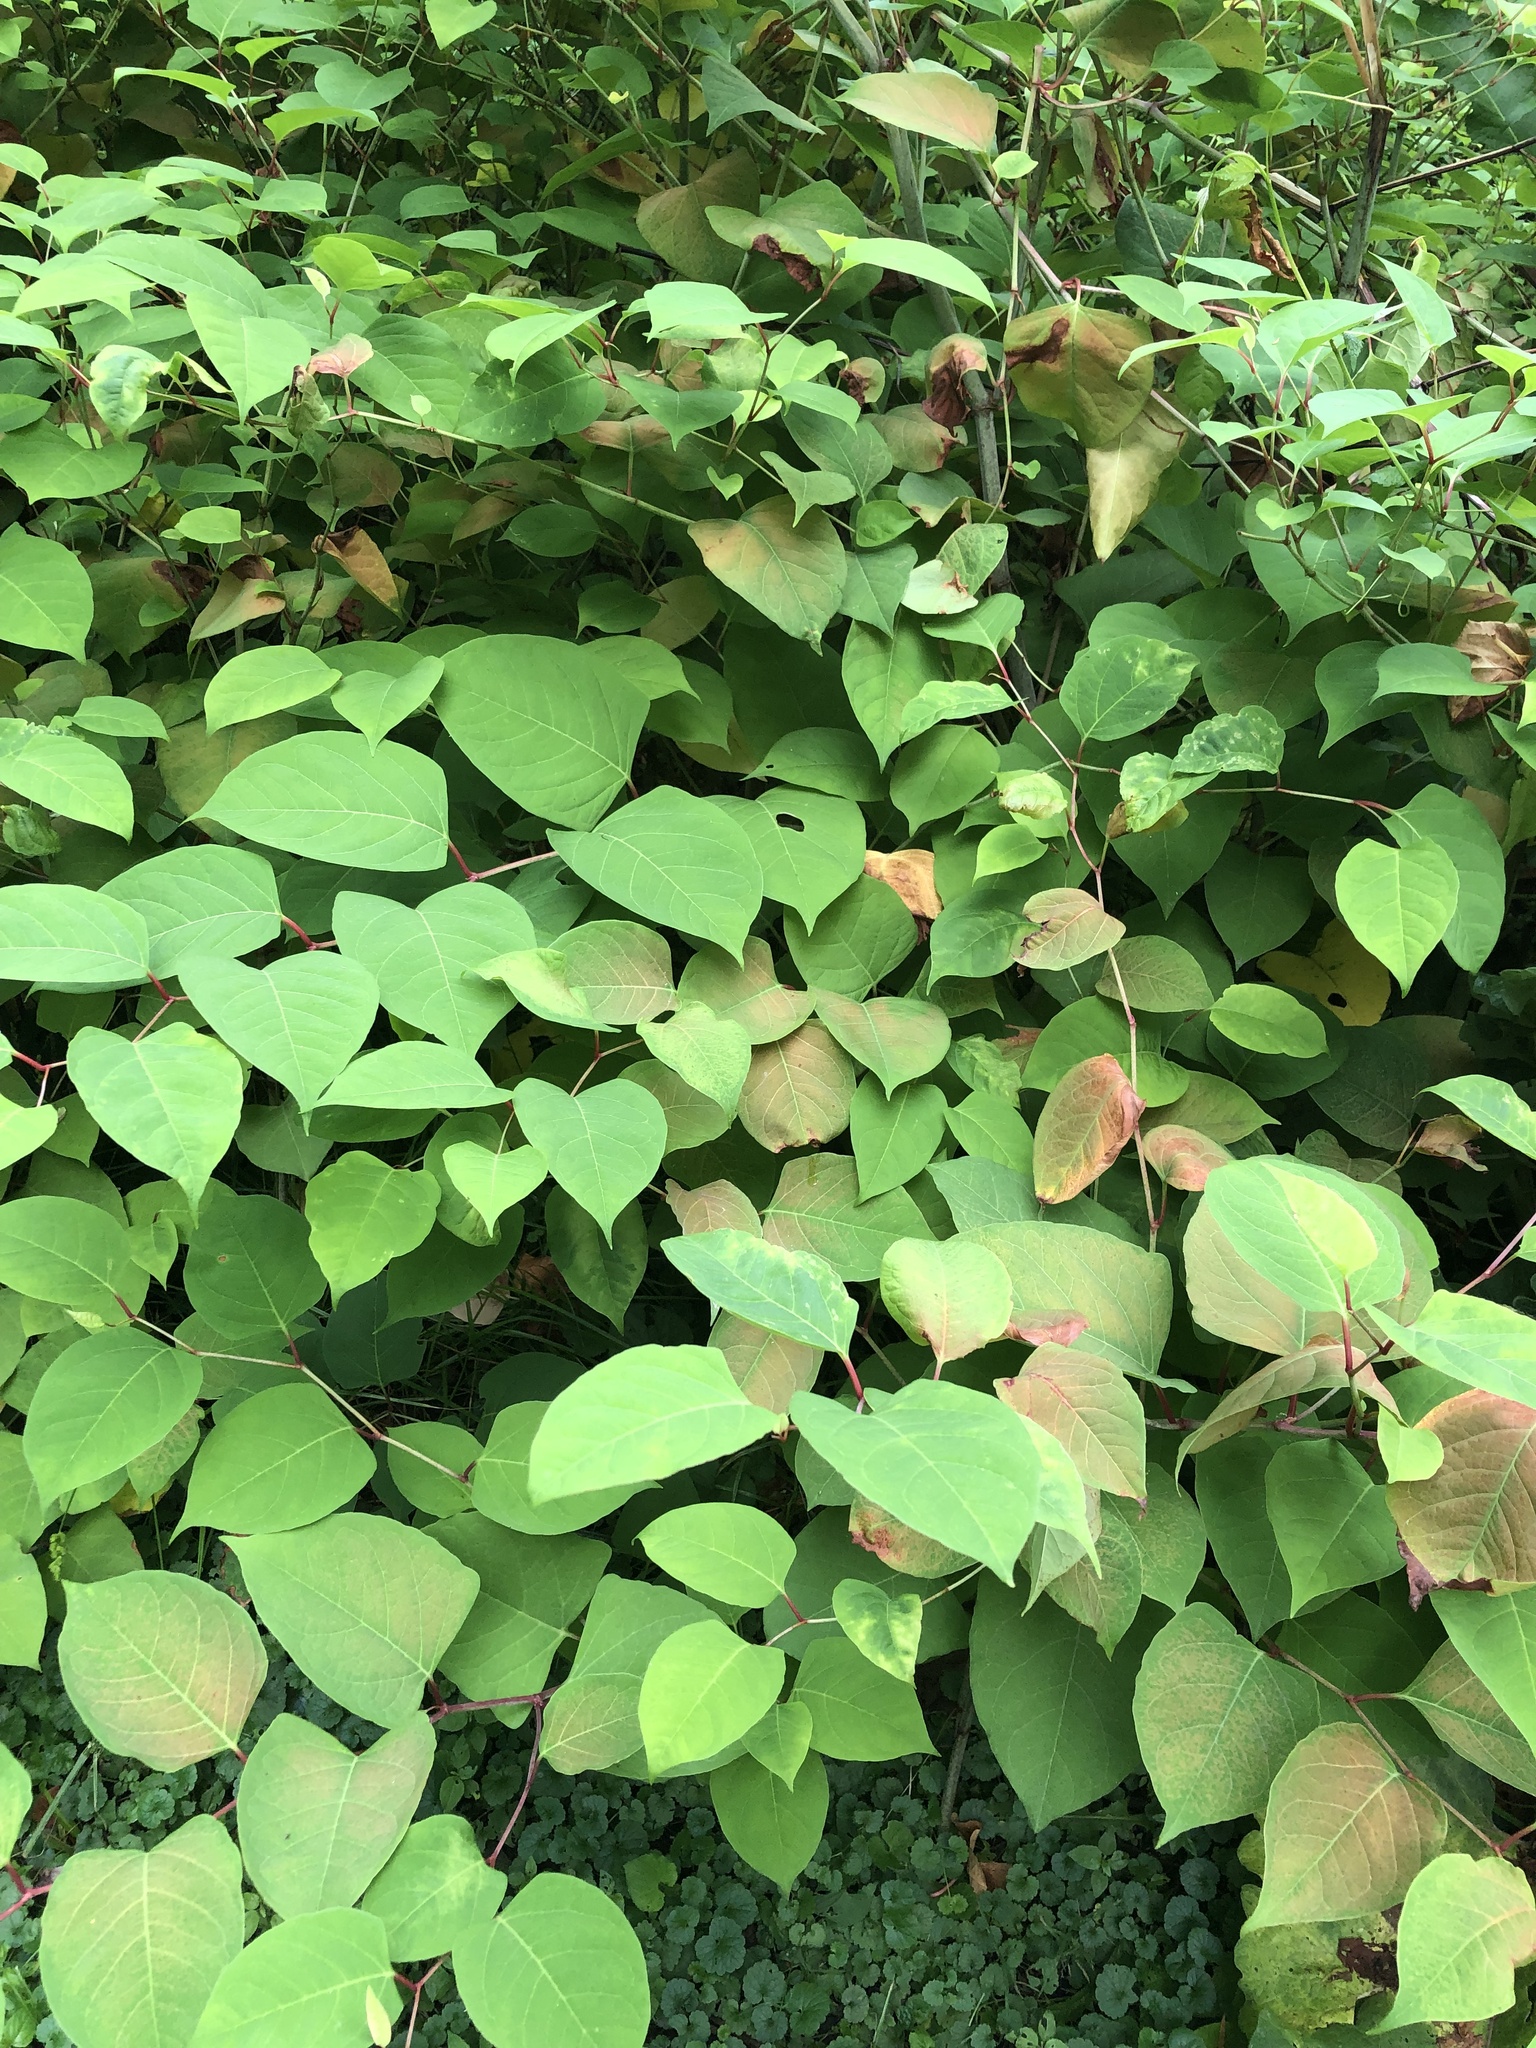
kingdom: Plantae
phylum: Tracheophyta
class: Magnoliopsida
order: Caryophyllales
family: Polygonaceae
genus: Reynoutria
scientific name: Reynoutria japonica
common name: Japanese knotweed
